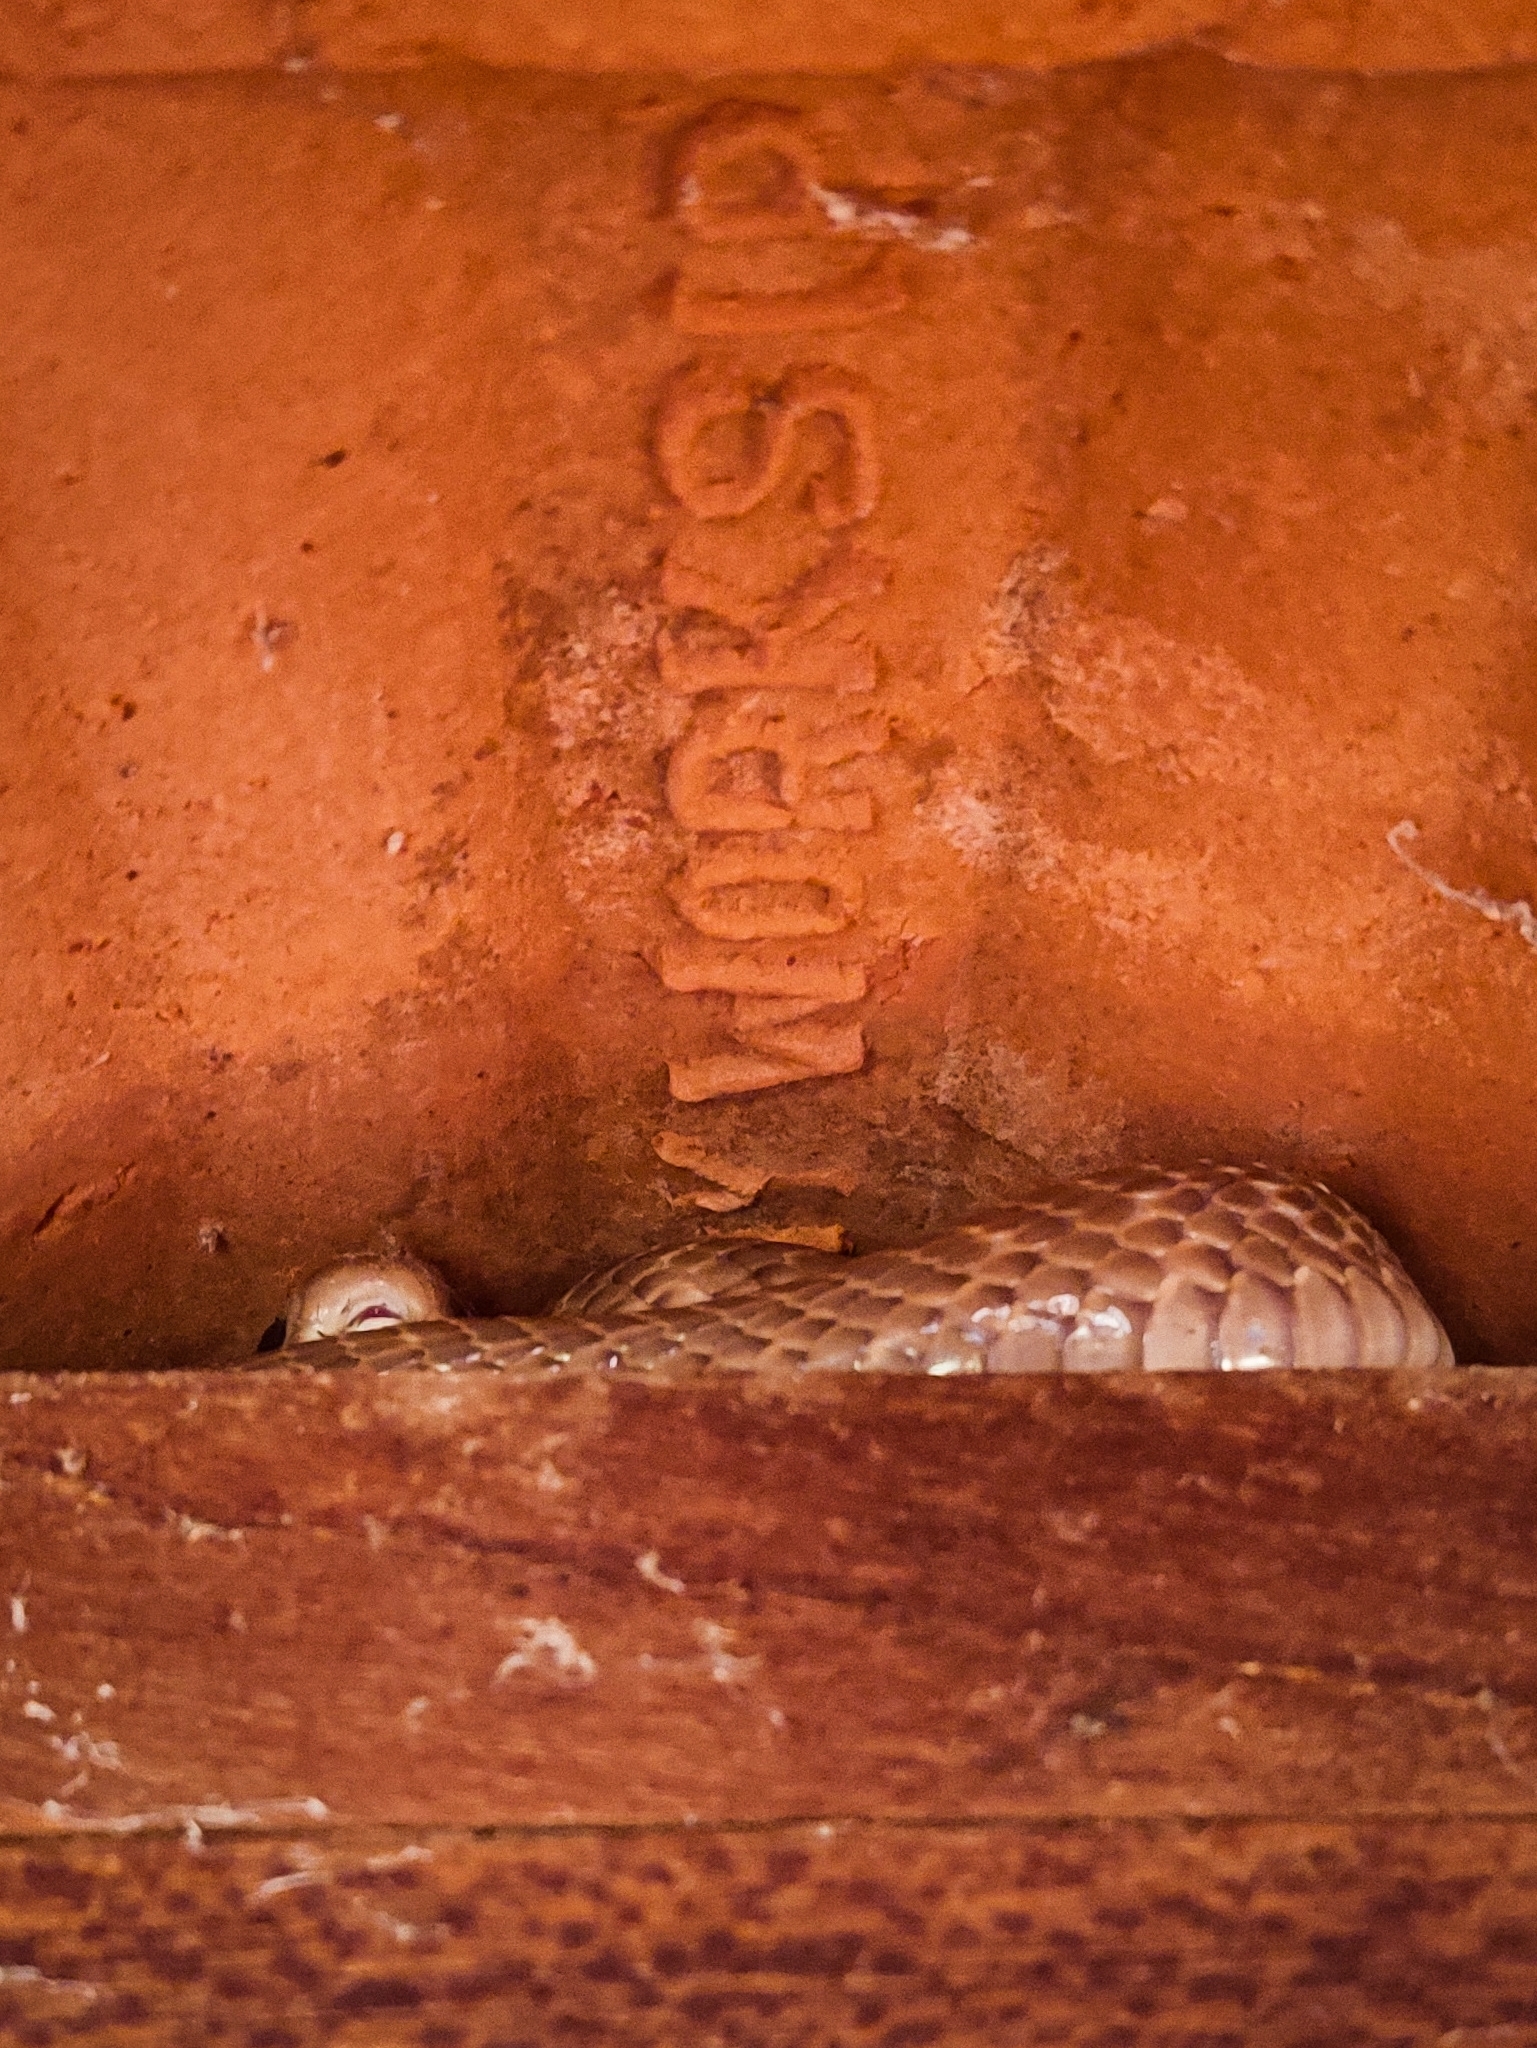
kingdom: Animalia
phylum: Chordata
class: Squamata
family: Elapidae
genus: Naja
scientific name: Naja naja
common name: Indian cobra
